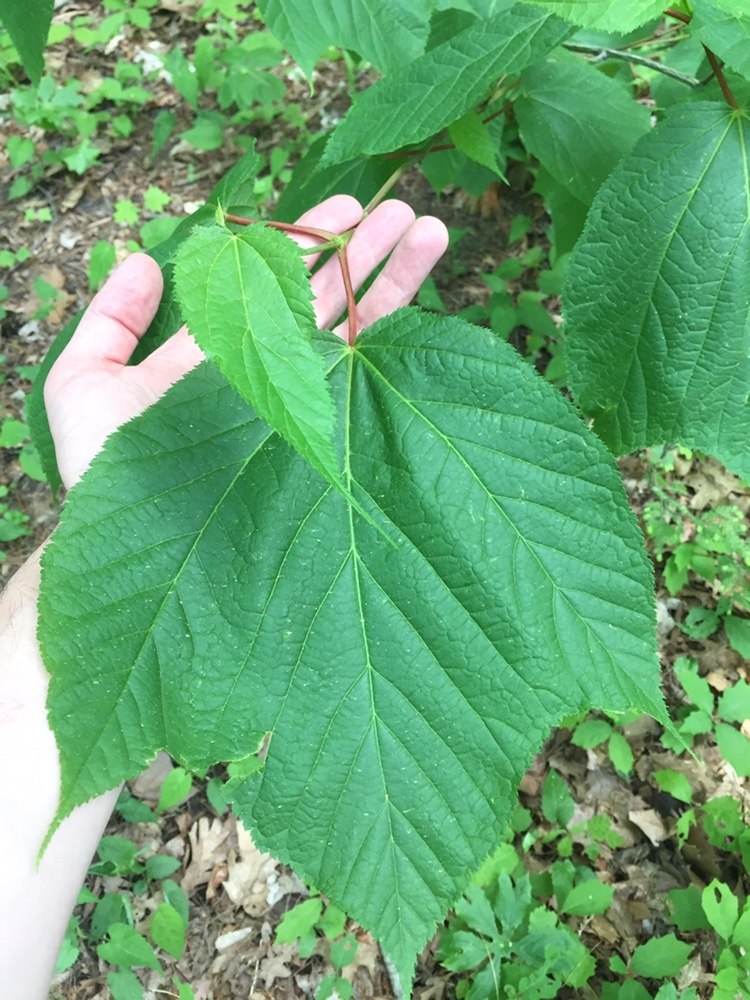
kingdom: Plantae
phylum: Tracheophyta
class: Magnoliopsida
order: Sapindales
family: Sapindaceae
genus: Acer
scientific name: Acer pensylvanicum
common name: Moosewood
